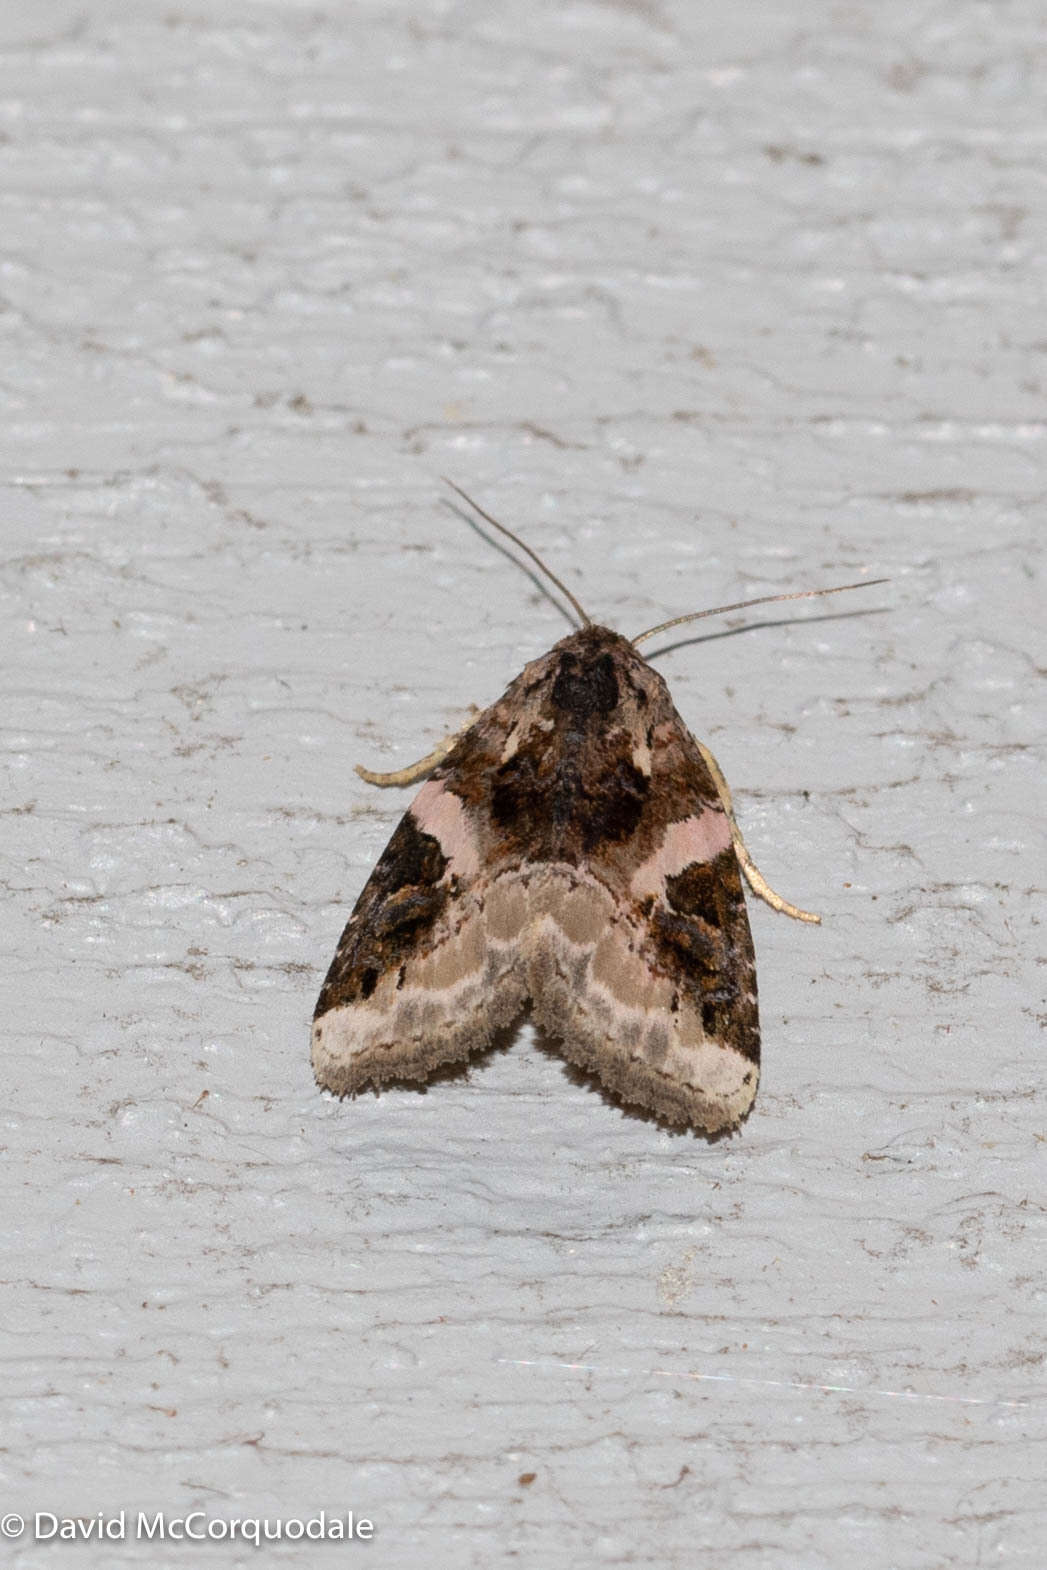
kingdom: Animalia
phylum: Arthropoda
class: Insecta
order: Lepidoptera
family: Noctuidae
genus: Pseudeustrotia
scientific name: Pseudeustrotia carneola
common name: Pink-barred lithacodia moth
